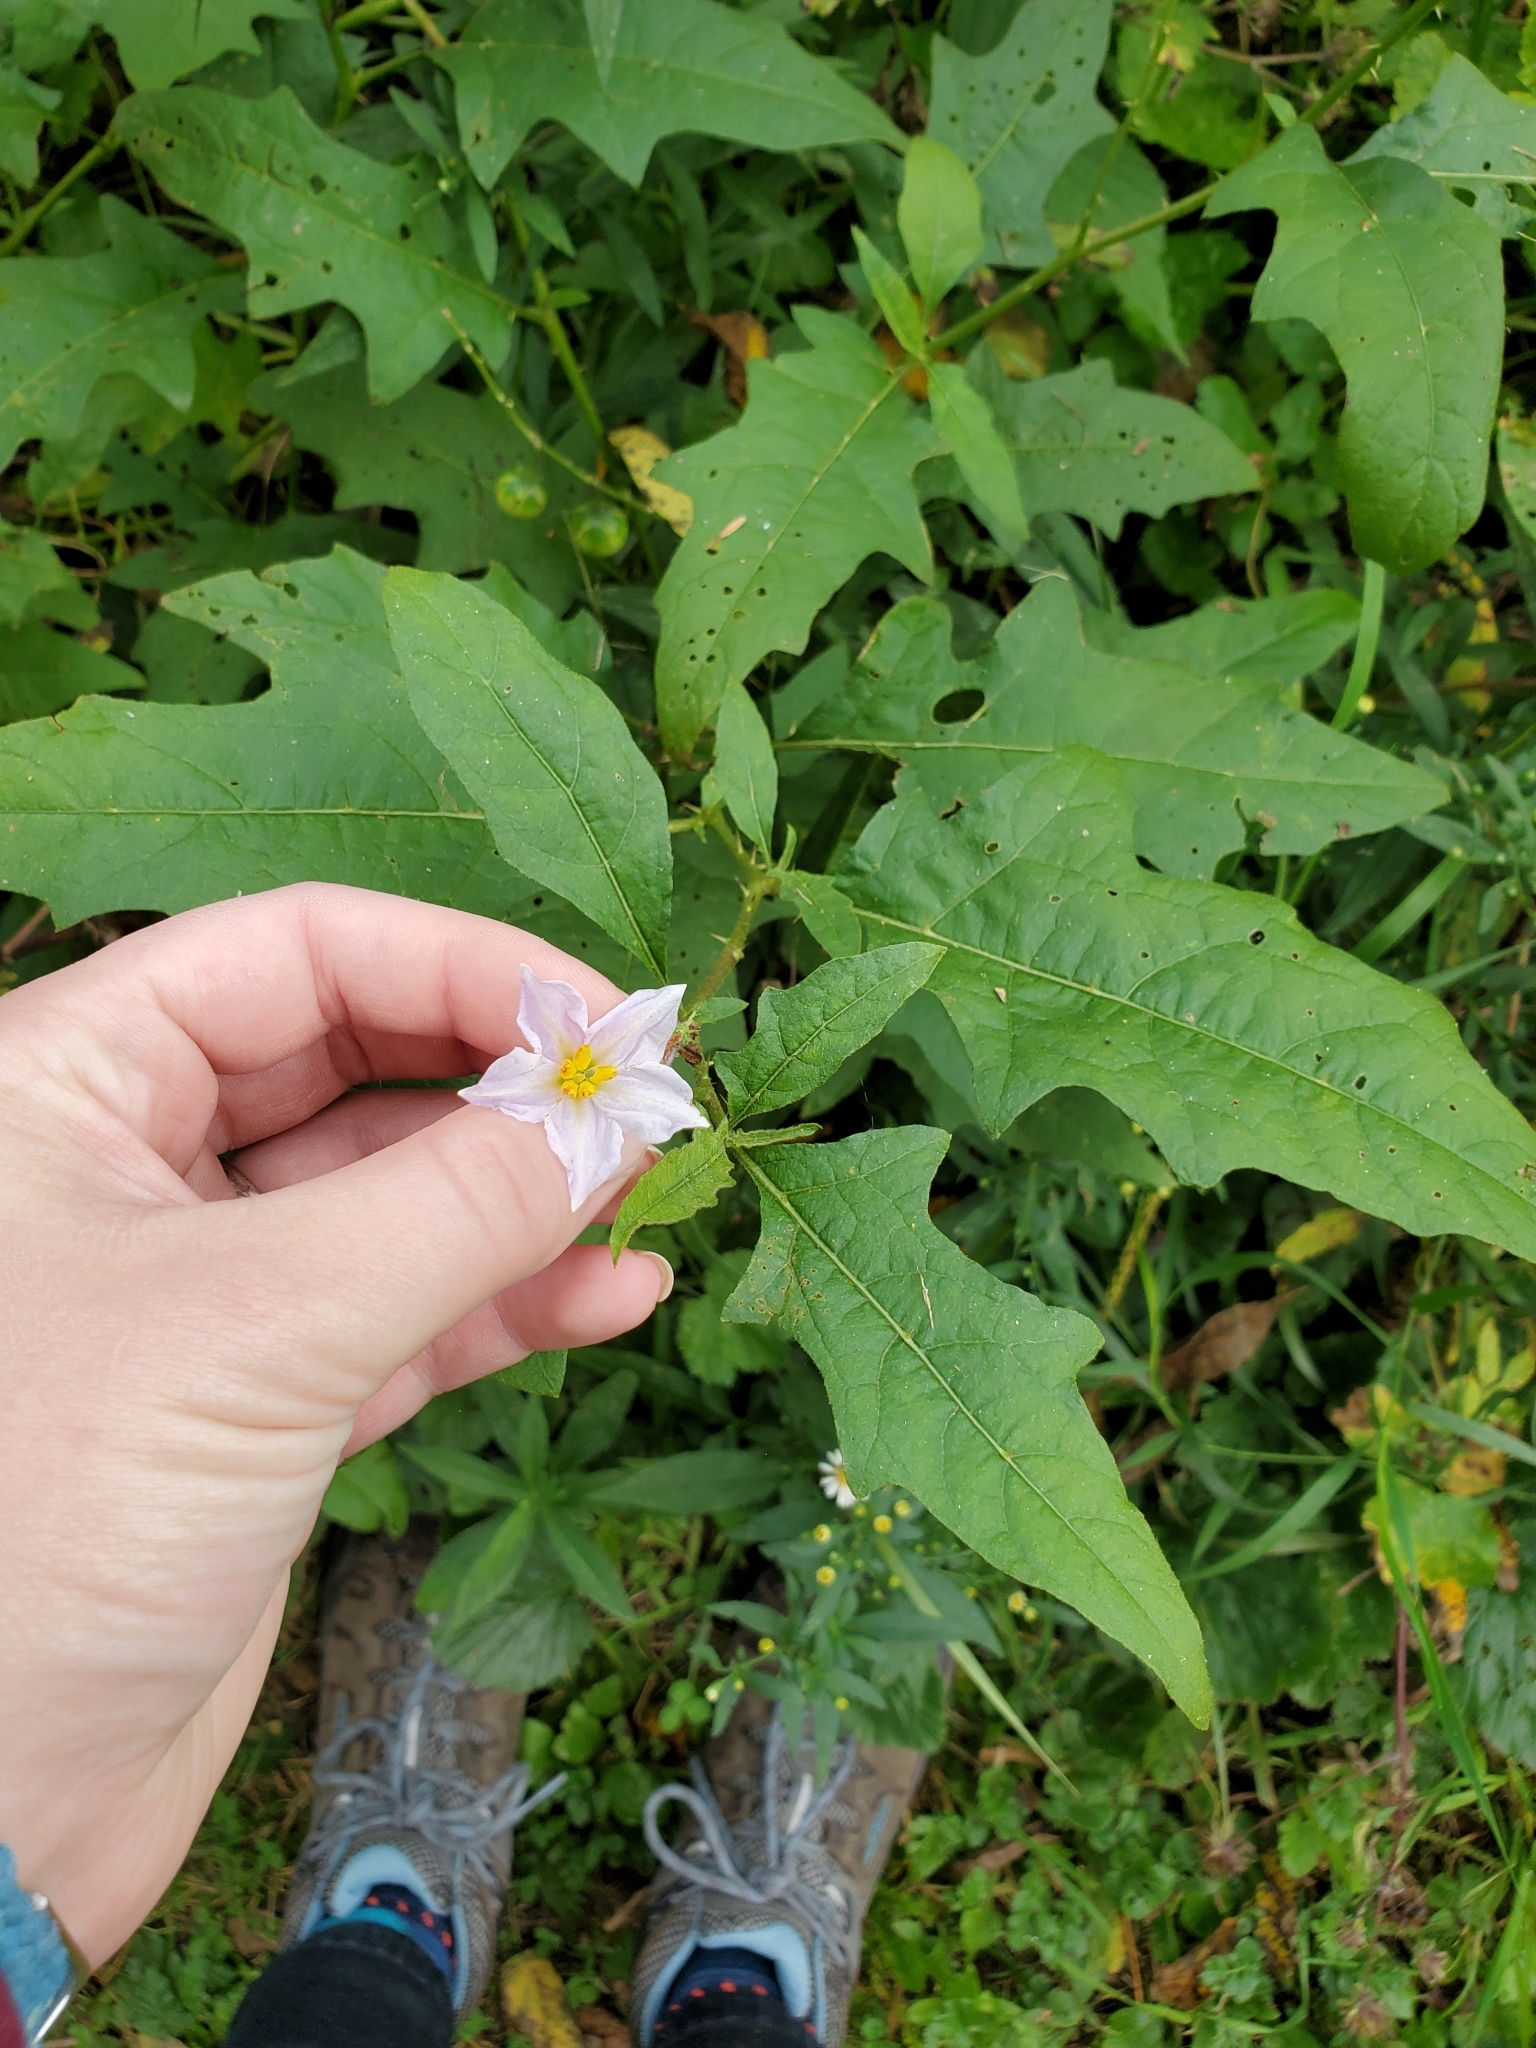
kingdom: Plantae
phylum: Tracheophyta
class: Magnoliopsida
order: Solanales
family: Solanaceae
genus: Solanum
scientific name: Solanum carolinense
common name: Horse-nettle
